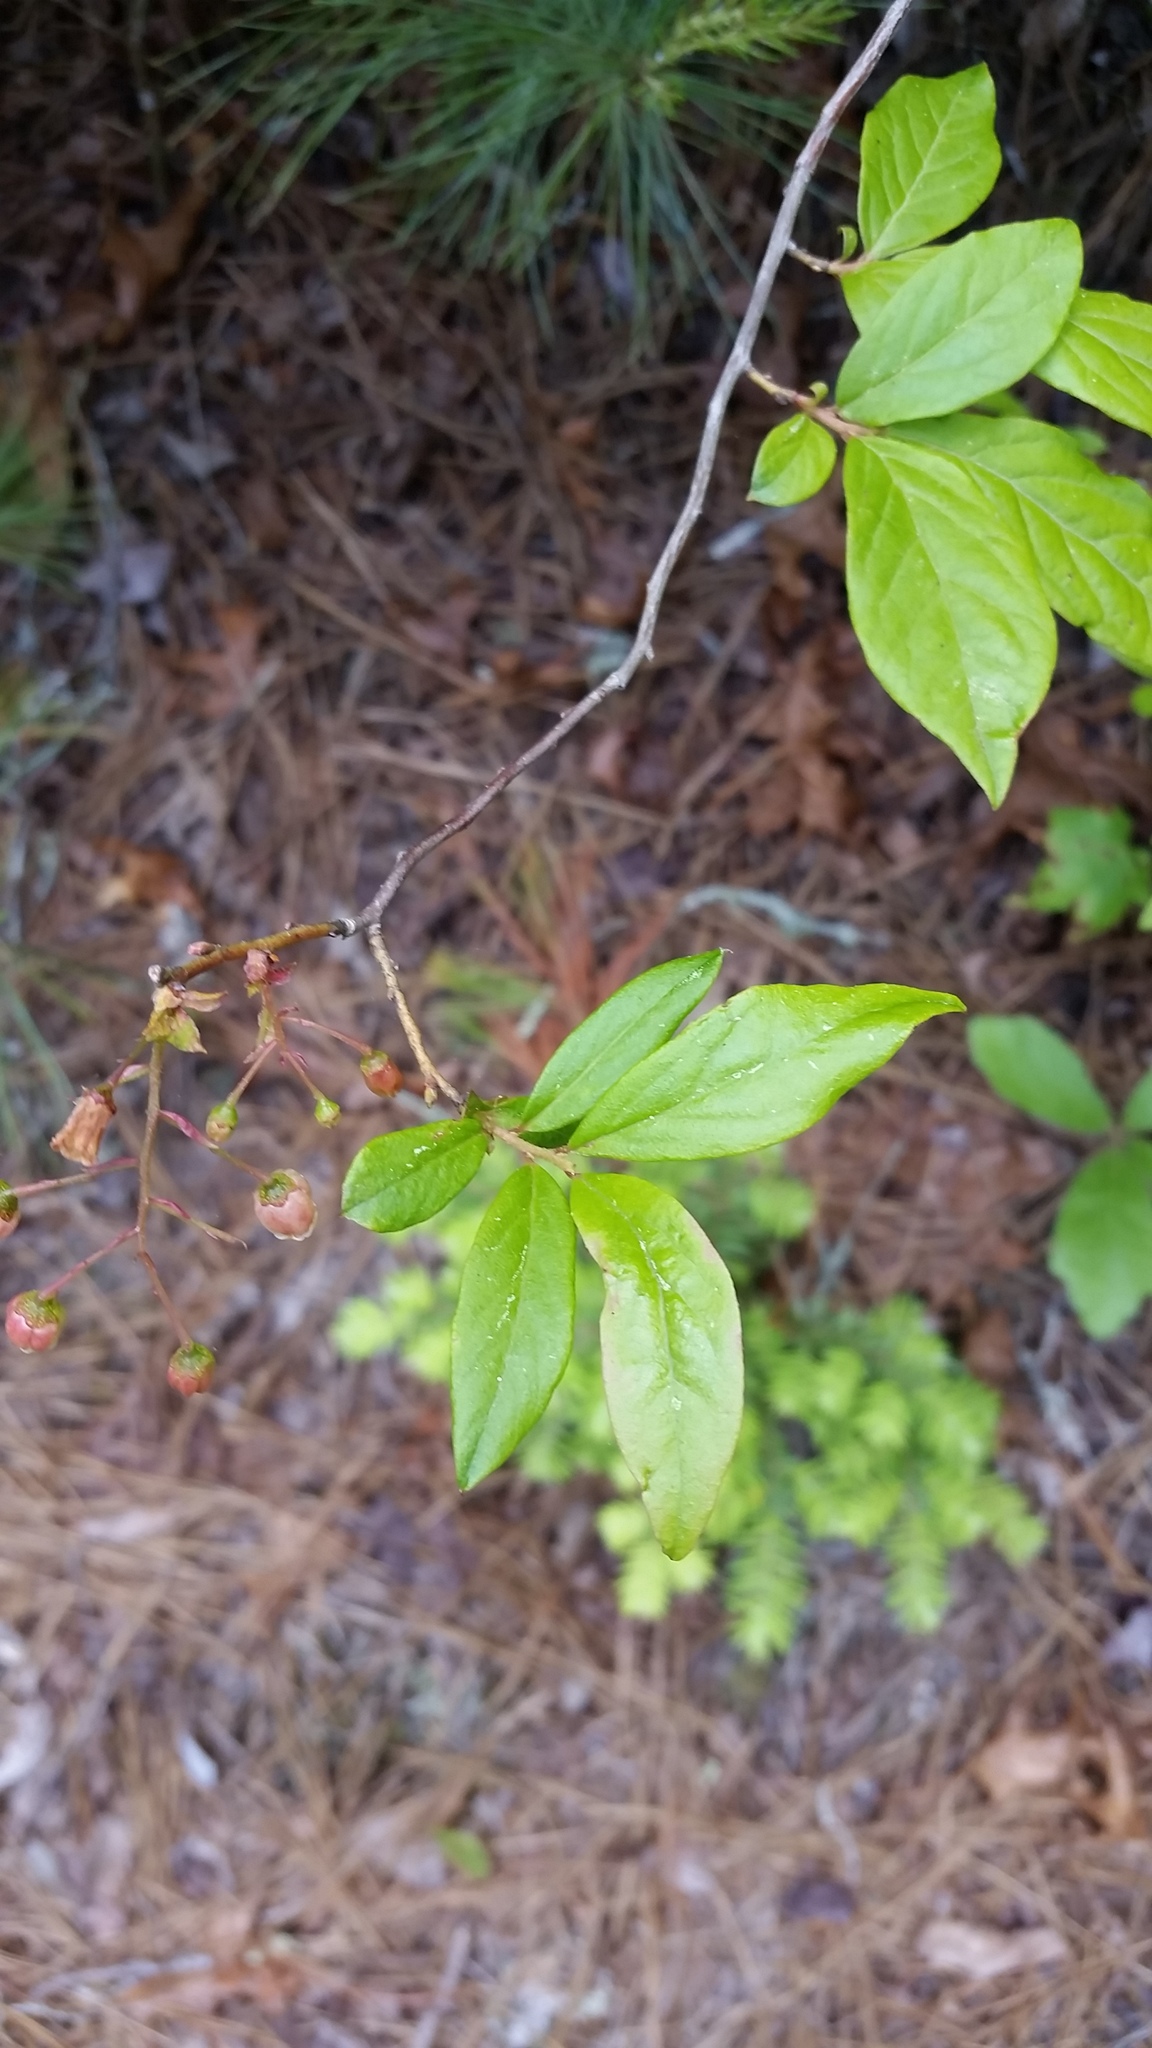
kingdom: Plantae
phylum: Tracheophyta
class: Magnoliopsida
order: Ericales
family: Ericaceae
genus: Gaylussacia
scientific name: Gaylussacia ursina
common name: Bear huckleberry
